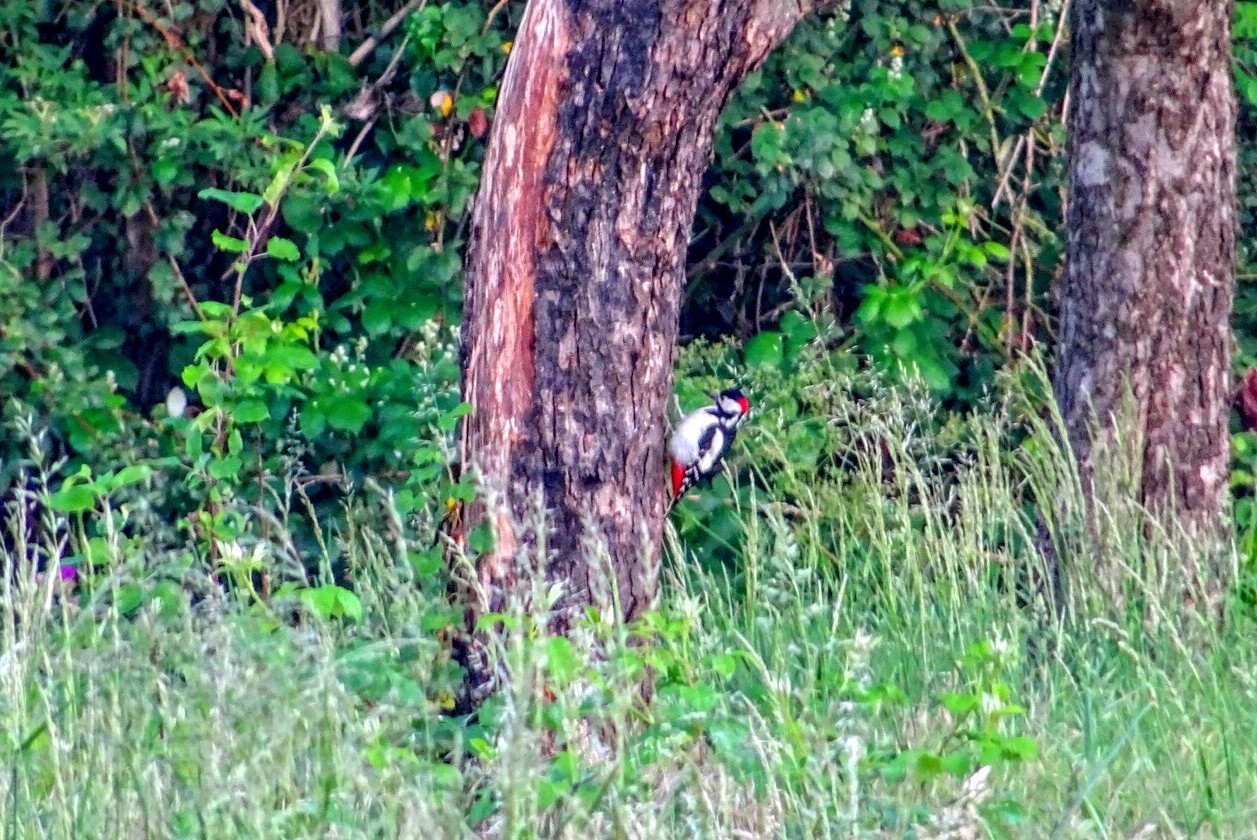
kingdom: Animalia
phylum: Chordata
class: Aves
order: Piciformes
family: Picidae
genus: Dendrocopos
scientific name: Dendrocopos major
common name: Great spotted woodpecker
